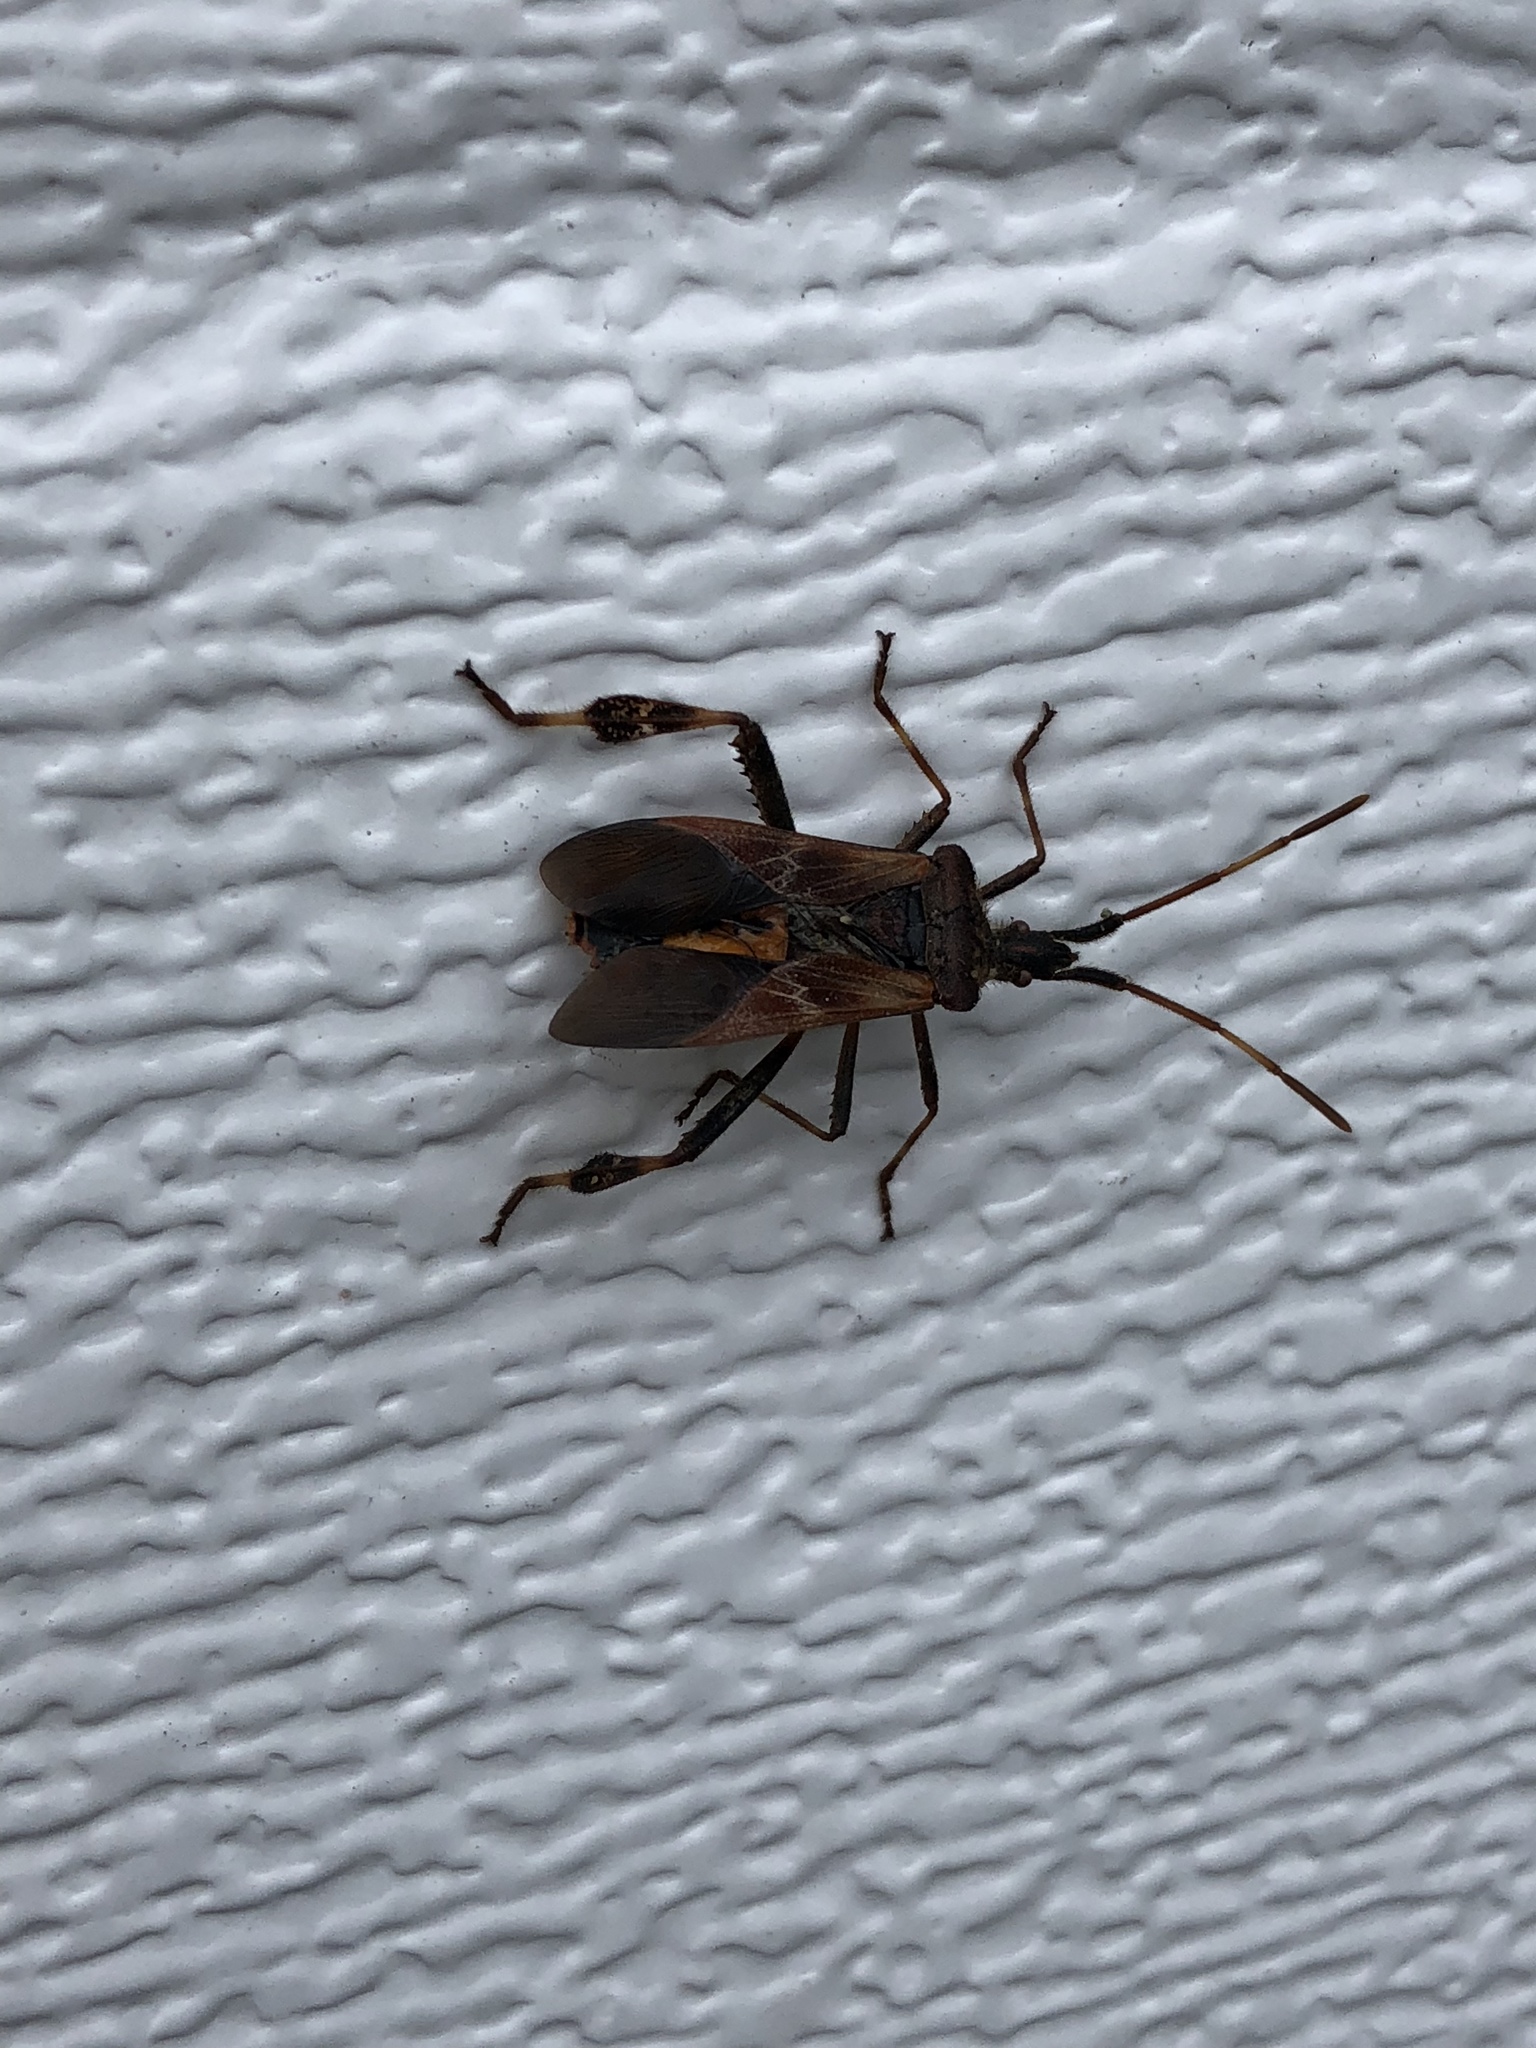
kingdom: Animalia
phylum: Arthropoda
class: Insecta
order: Hemiptera
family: Coreidae
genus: Leptoglossus
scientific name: Leptoglossus occidentalis
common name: Western conifer-seed bug
